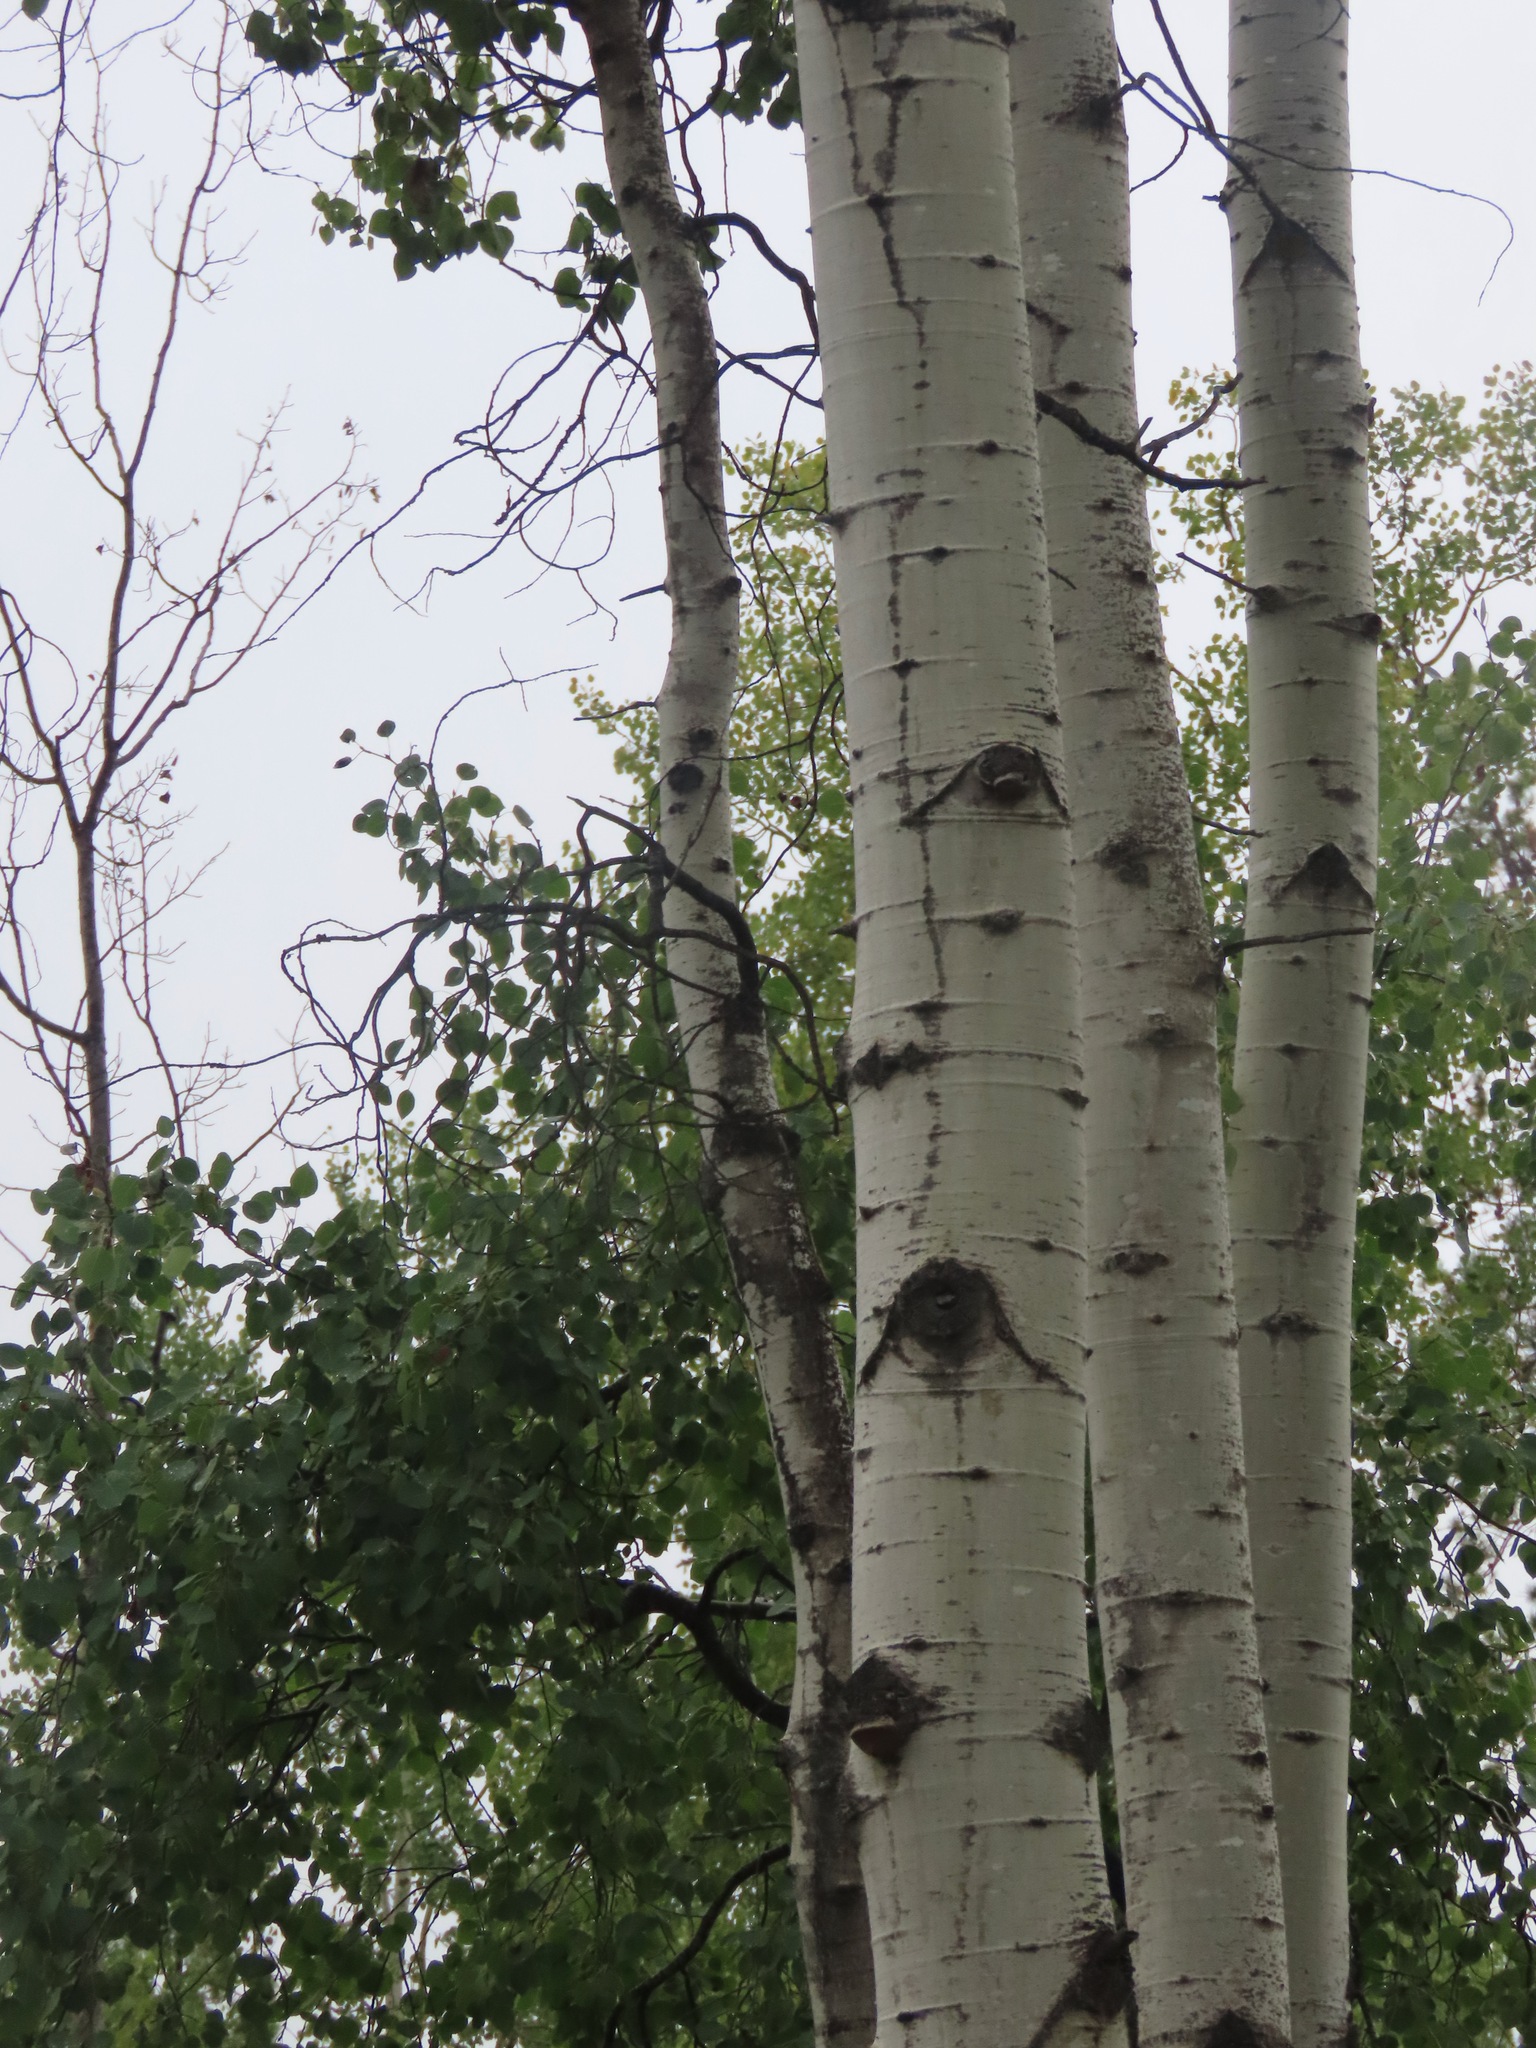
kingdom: Plantae
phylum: Tracheophyta
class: Magnoliopsida
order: Malpighiales
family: Salicaceae
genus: Populus
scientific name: Populus tremuloides
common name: Quaking aspen
